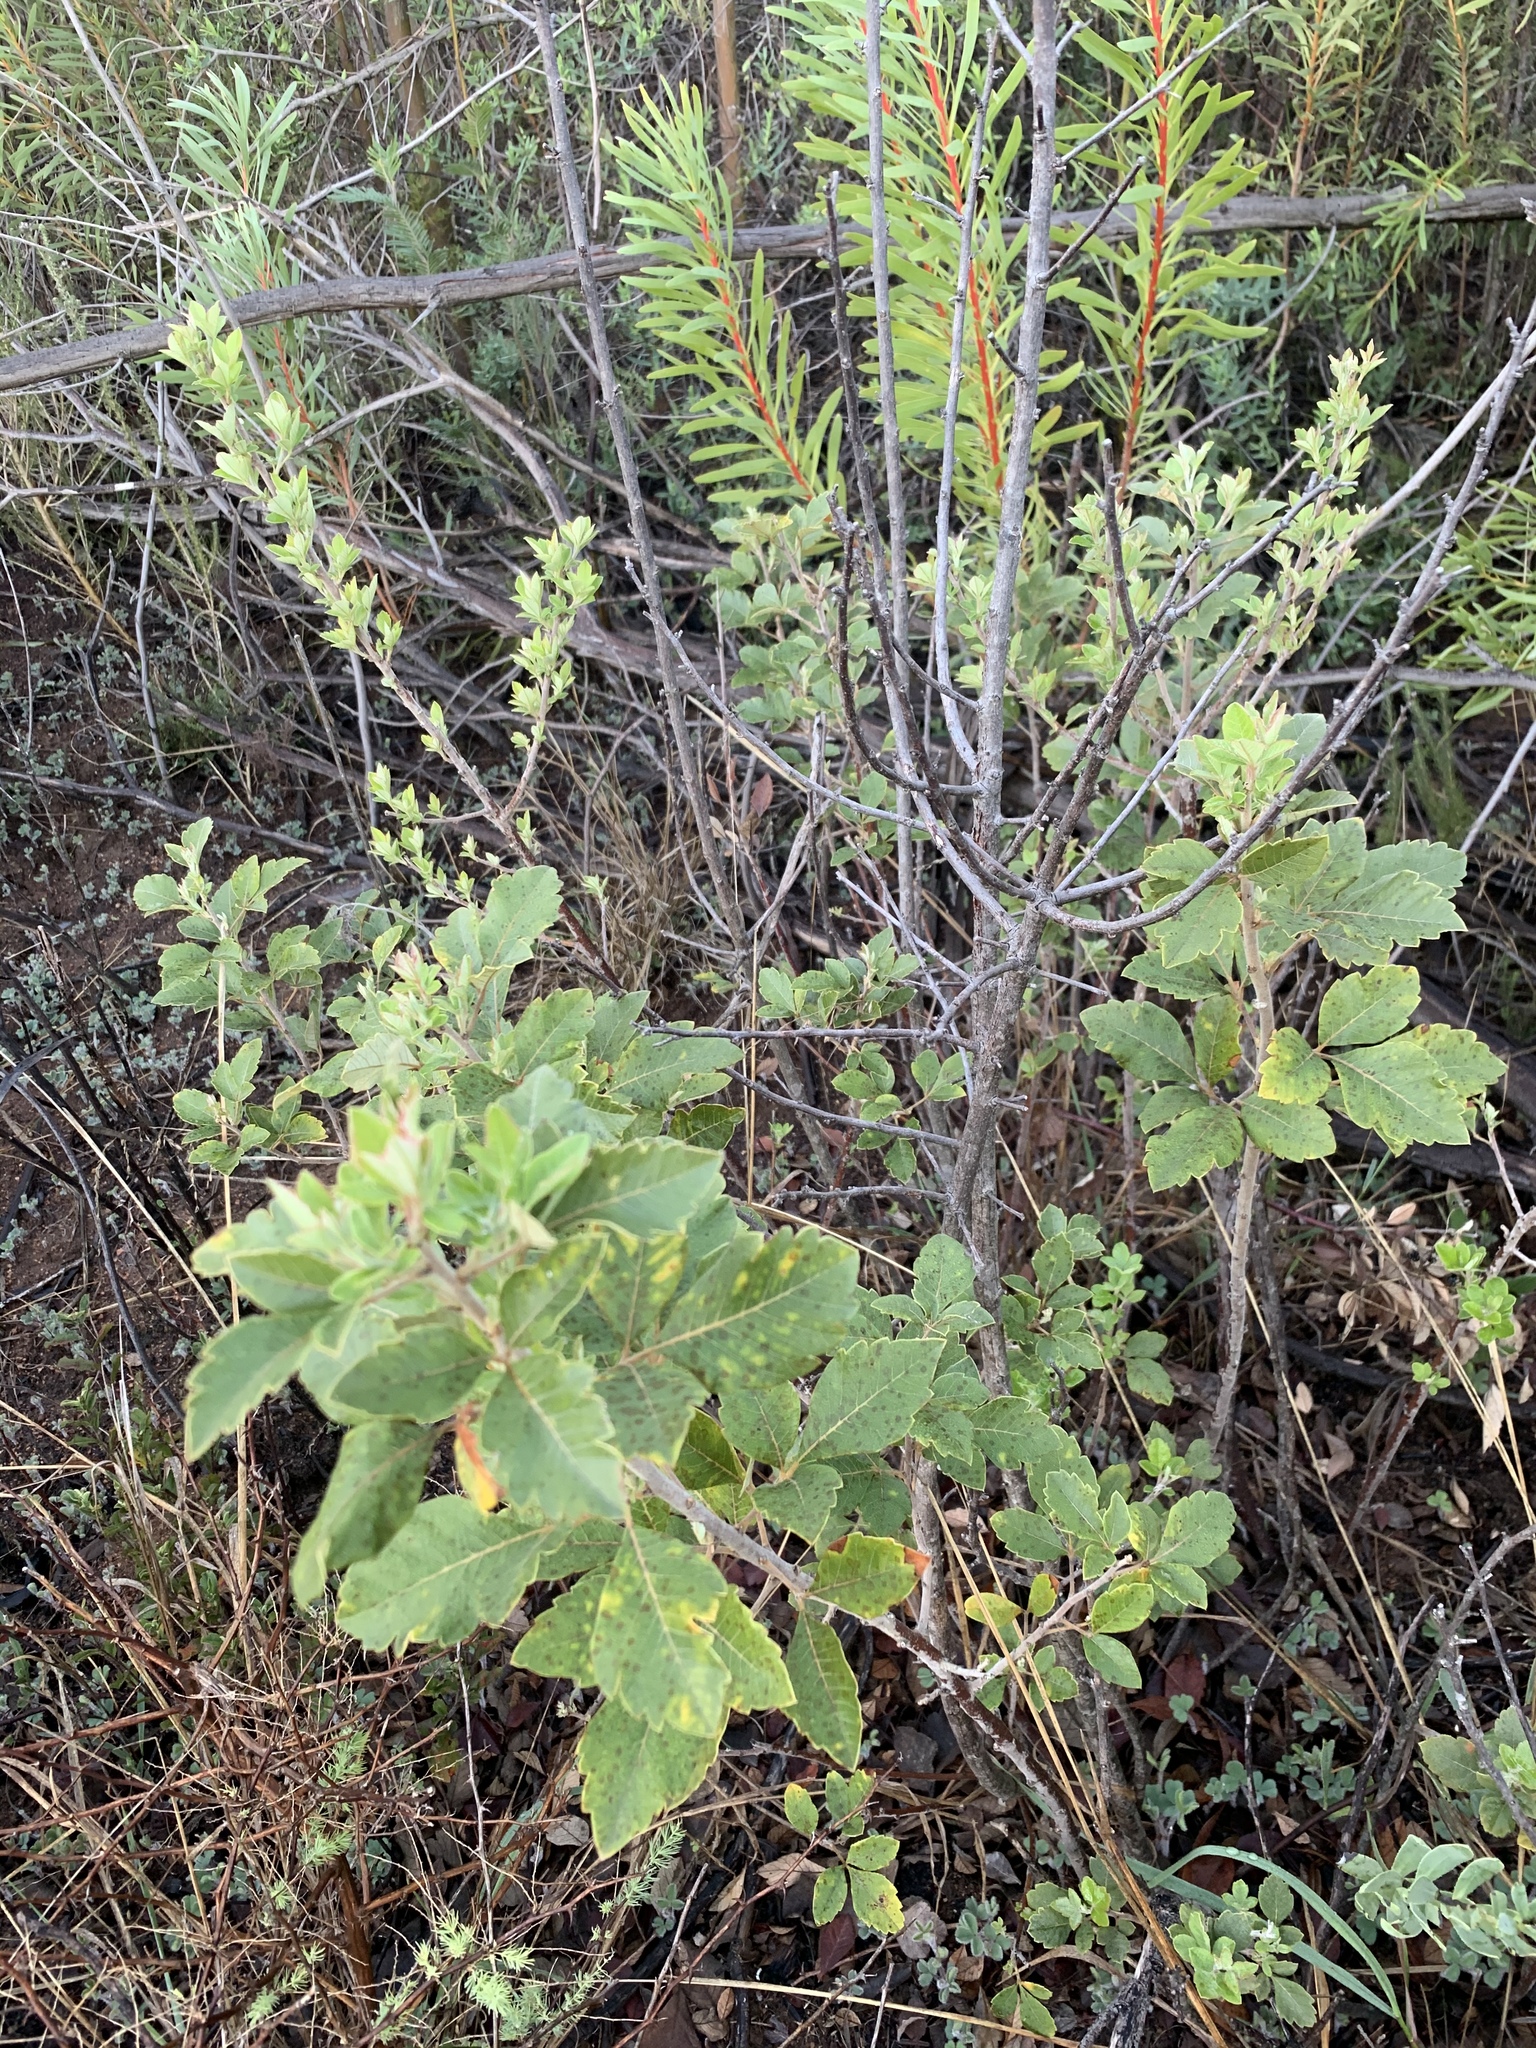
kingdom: Plantae
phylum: Tracheophyta
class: Magnoliopsida
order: Sapindales
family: Anacardiaceae
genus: Searsia
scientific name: Searsia tomentosa
